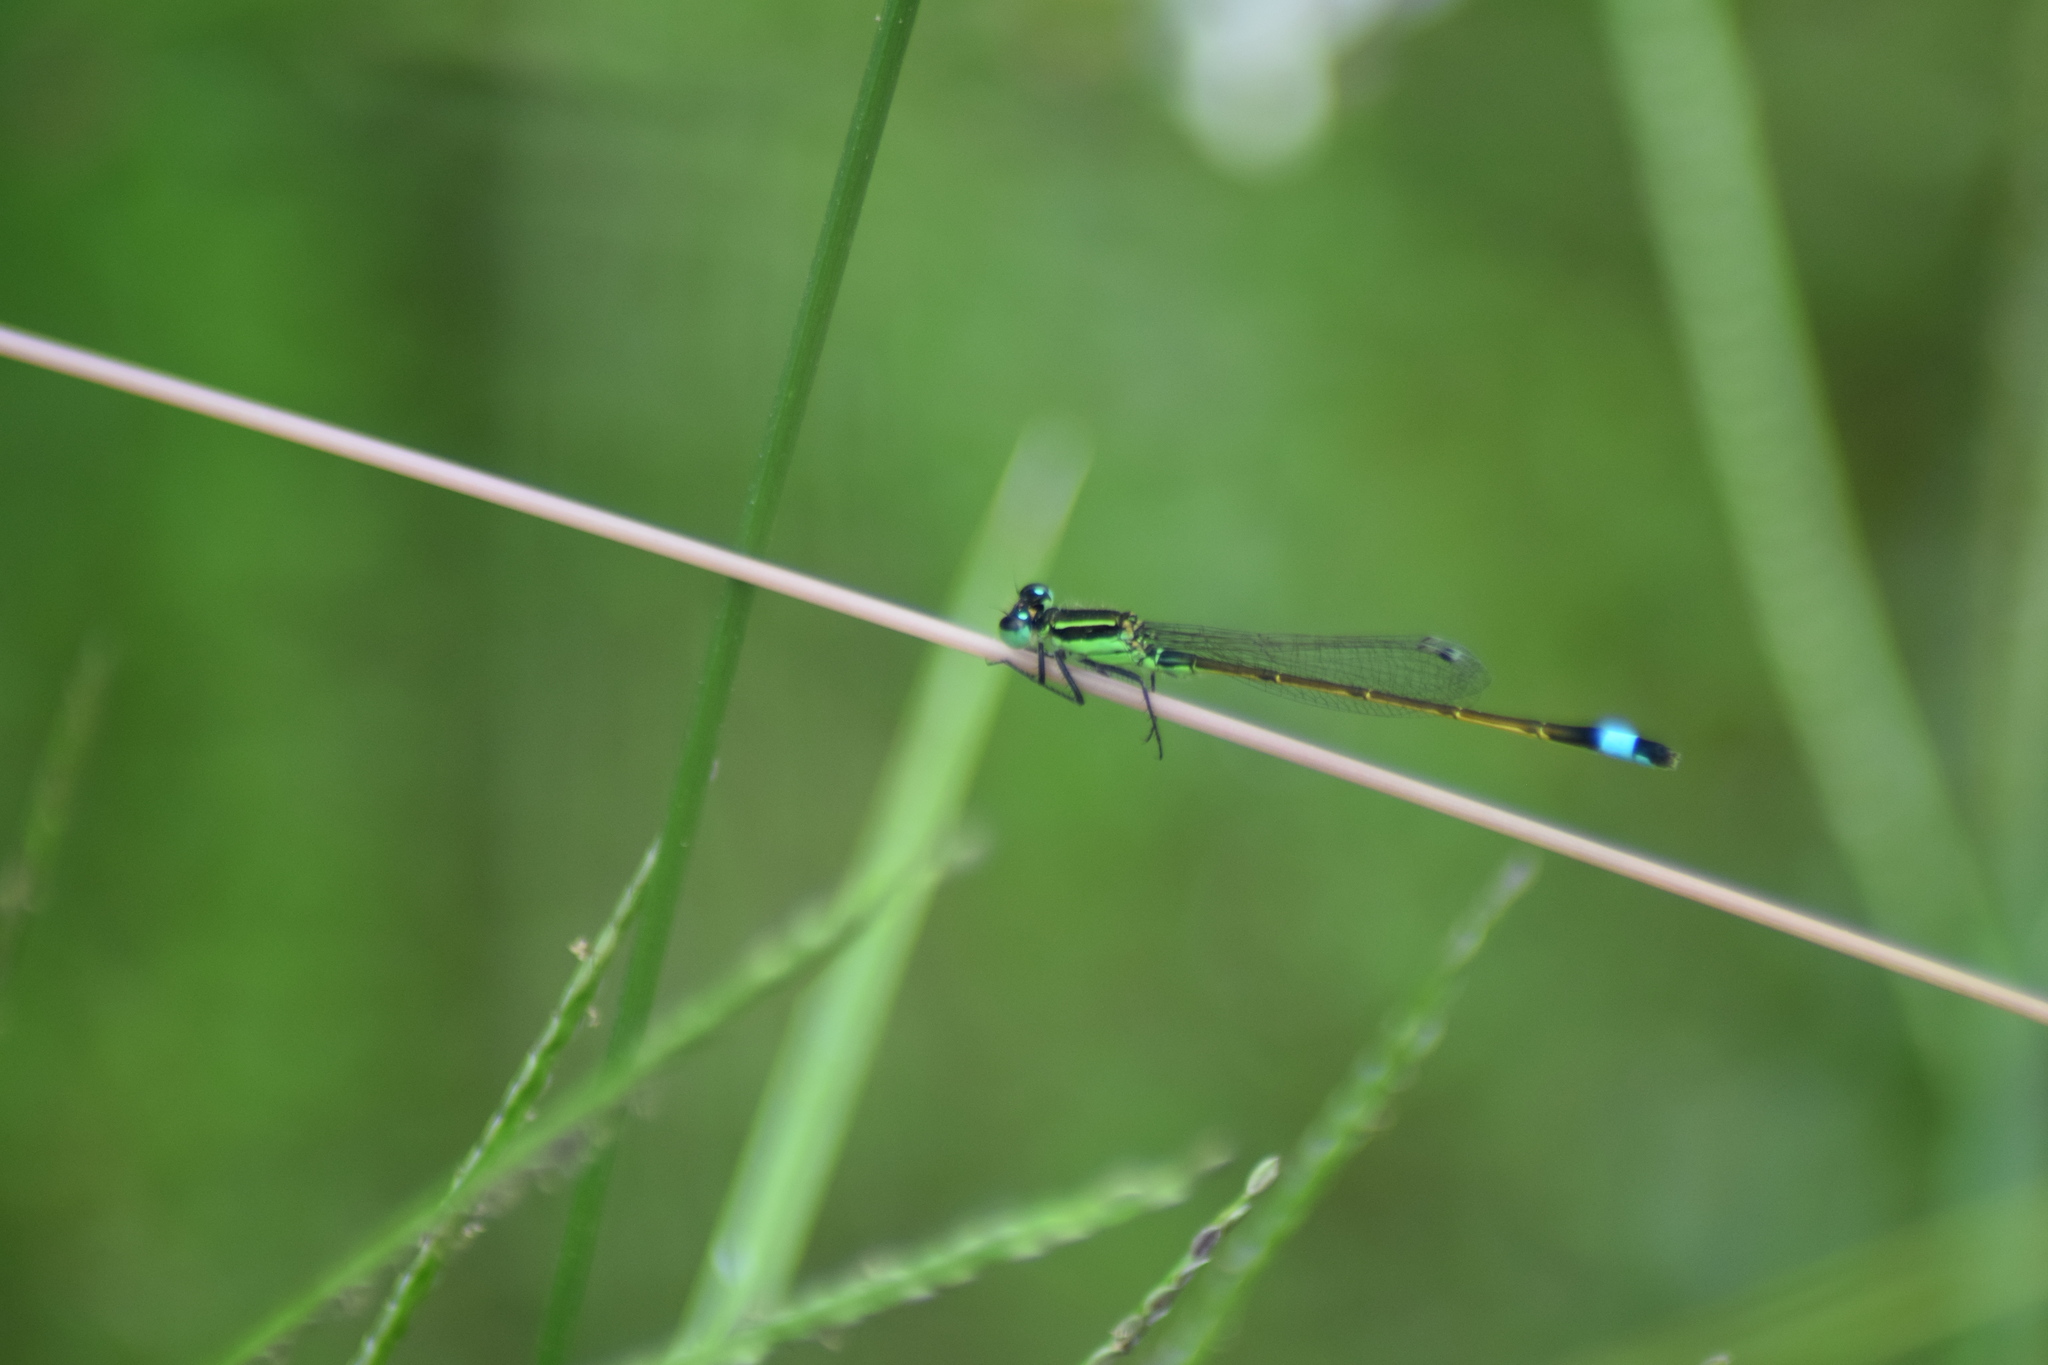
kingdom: Animalia
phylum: Arthropoda
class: Insecta
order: Odonata
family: Coenagrionidae
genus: Ischnura
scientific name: Ischnura ramburii
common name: Rambur's forktail
